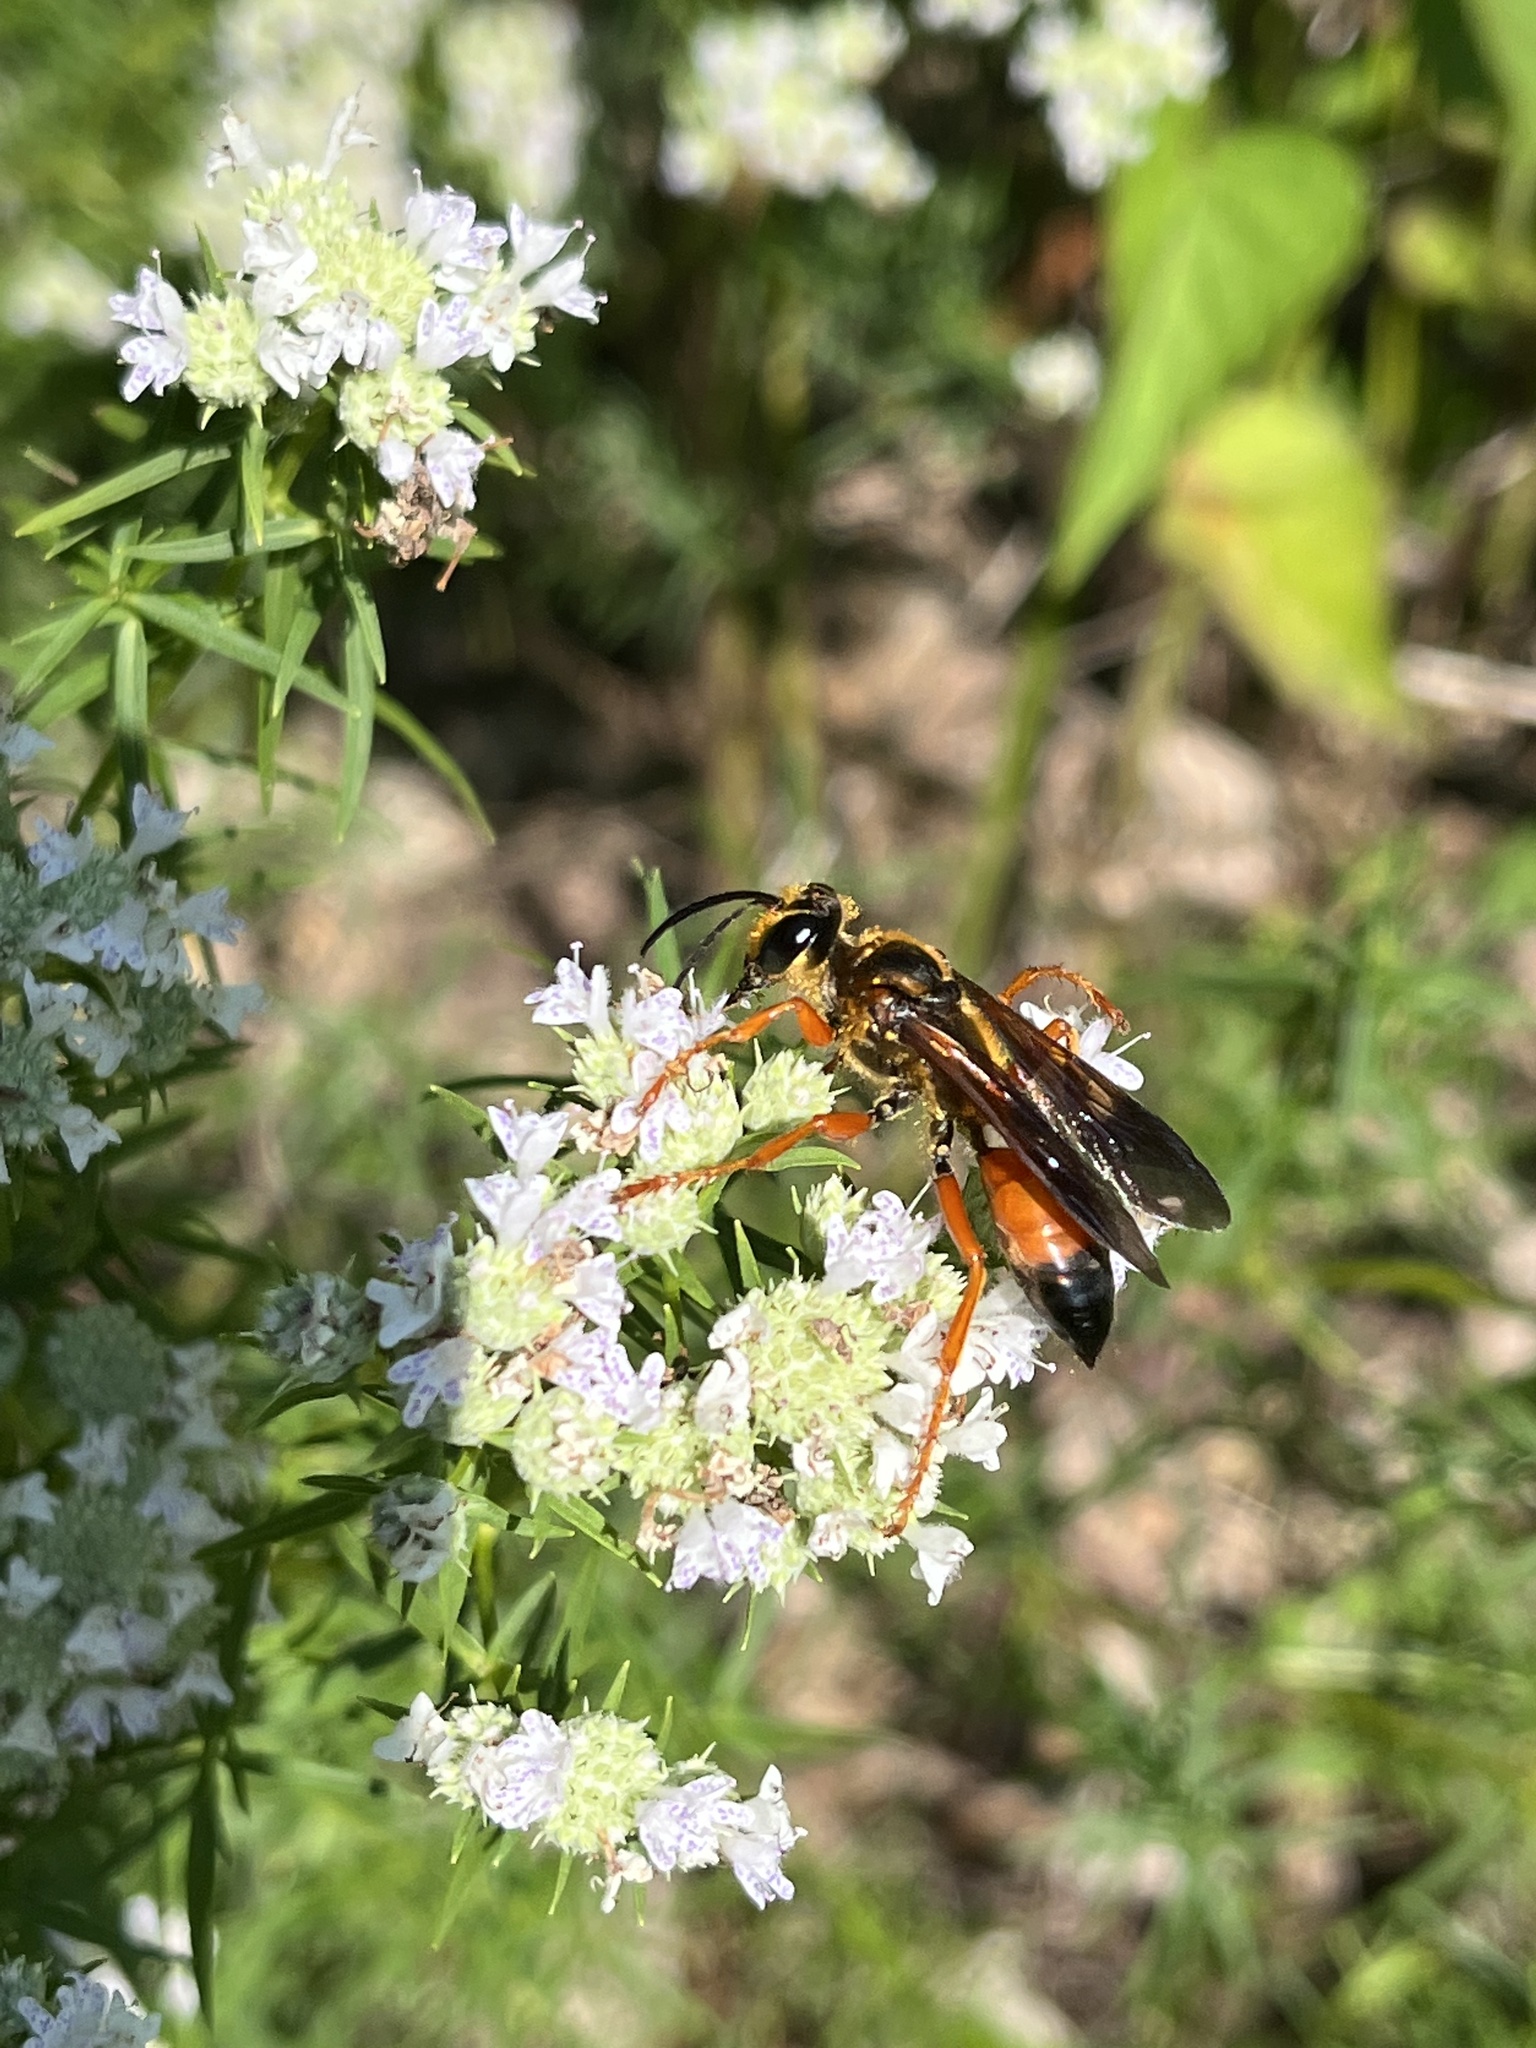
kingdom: Animalia
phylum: Arthropoda
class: Insecta
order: Hymenoptera
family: Sphecidae
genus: Sphex
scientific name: Sphex ichneumoneus
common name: Great golden digger wasp
